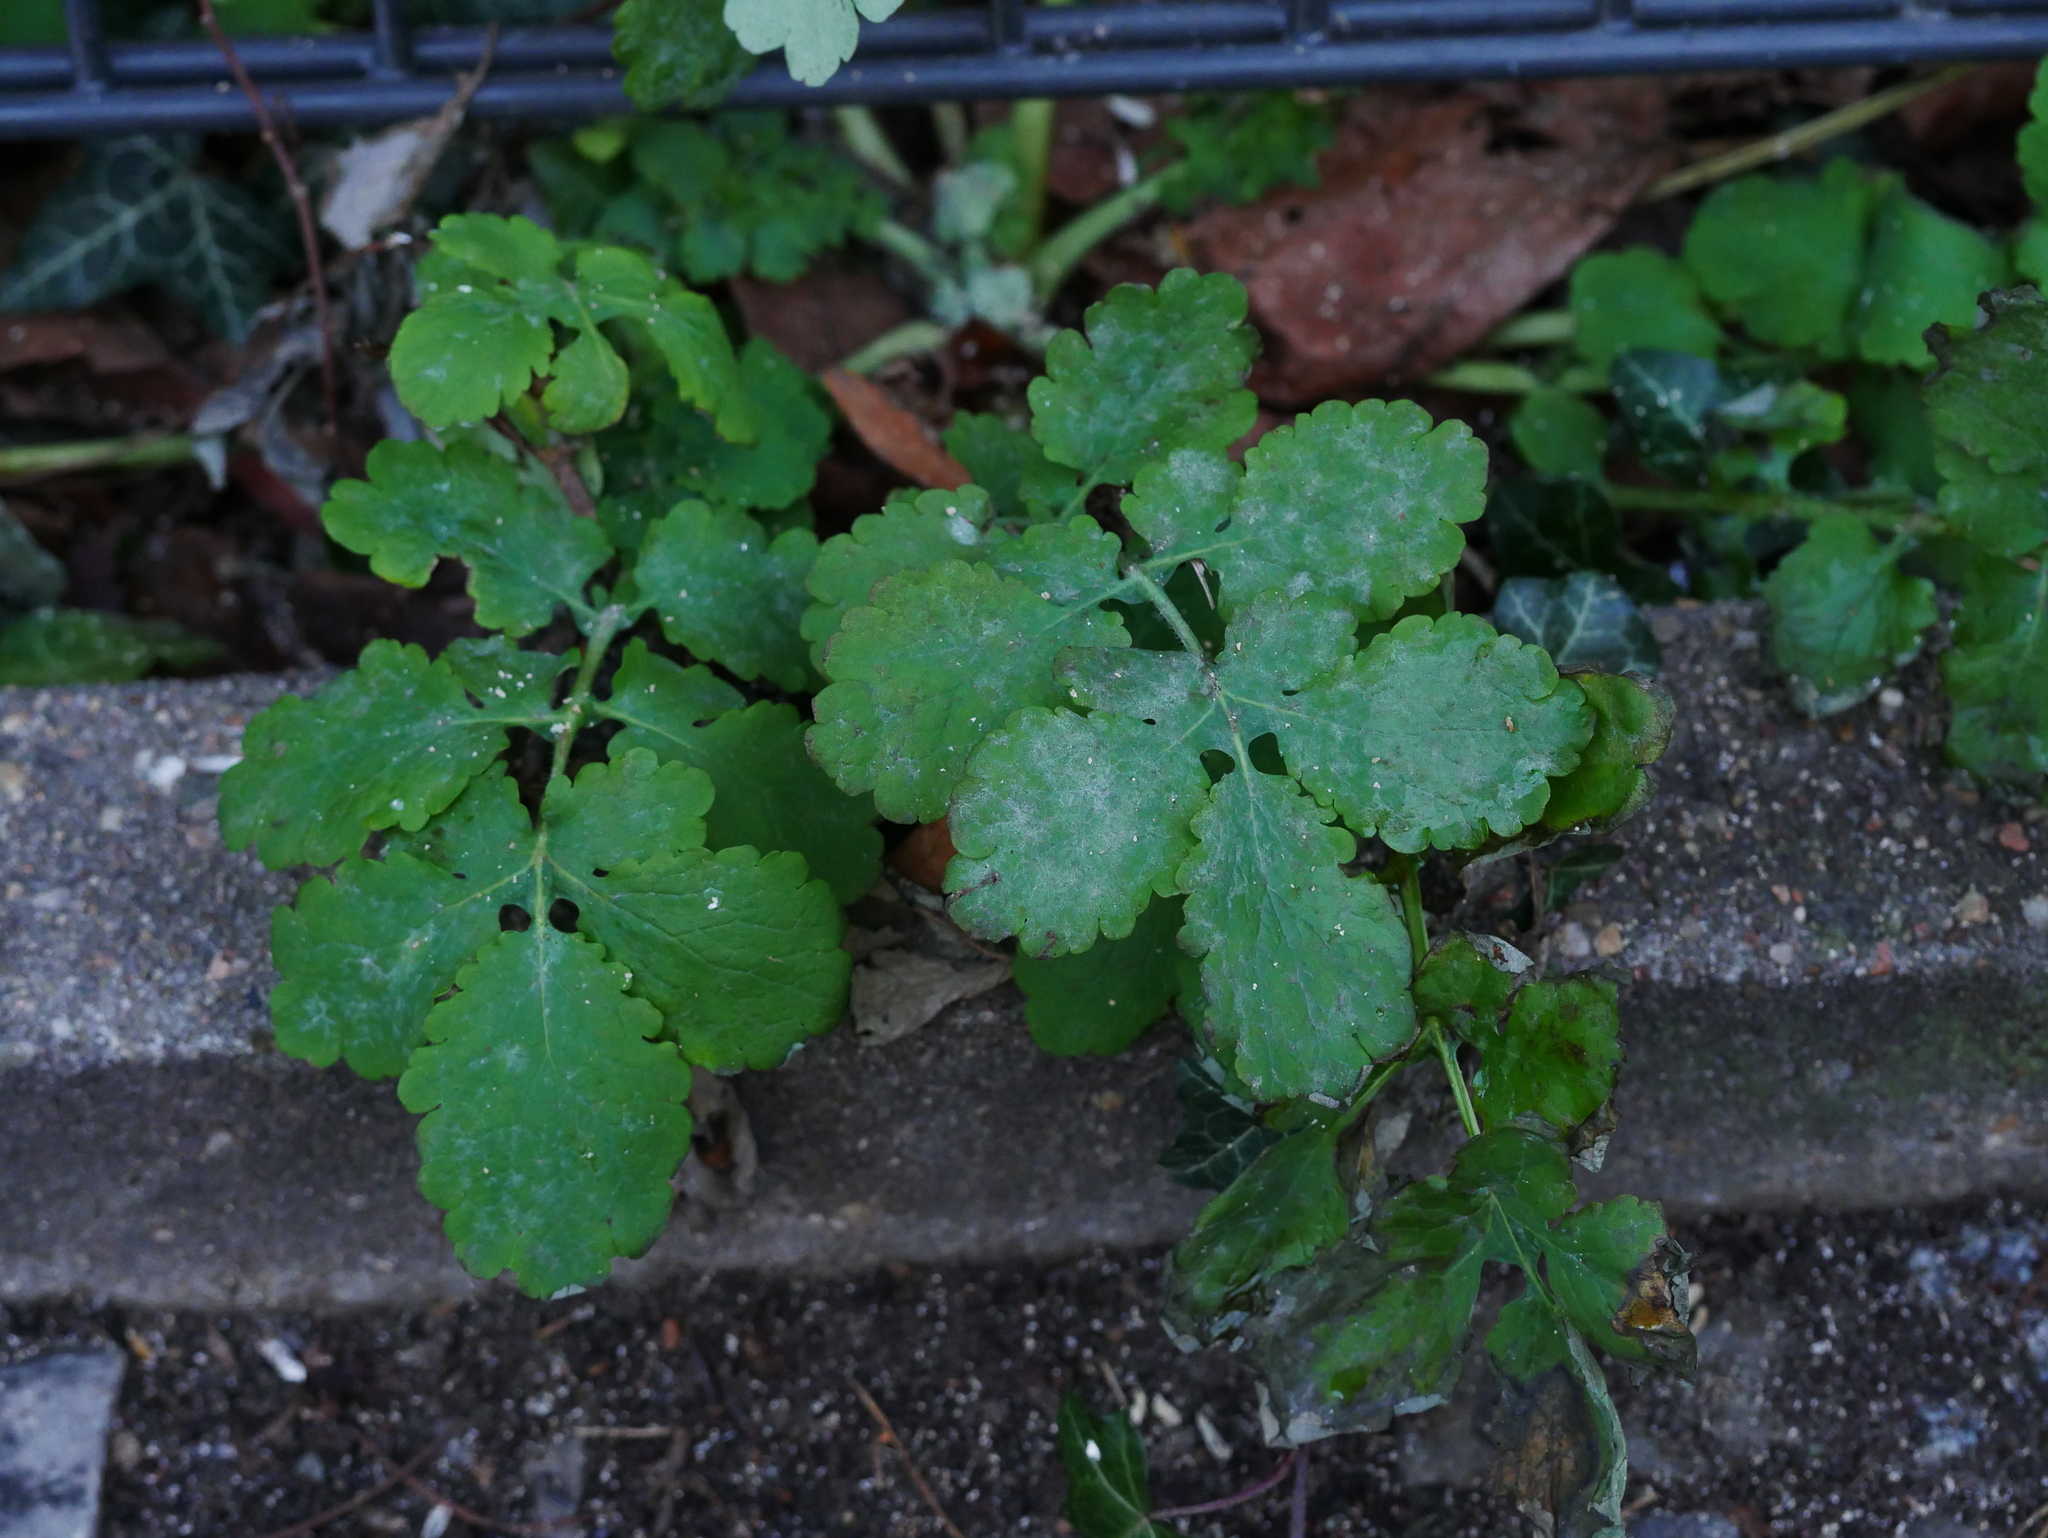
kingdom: Fungi
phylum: Ascomycota
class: Leotiomycetes
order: Helotiales
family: Erysiphaceae
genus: Erysiphe
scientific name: Erysiphe macleayae
